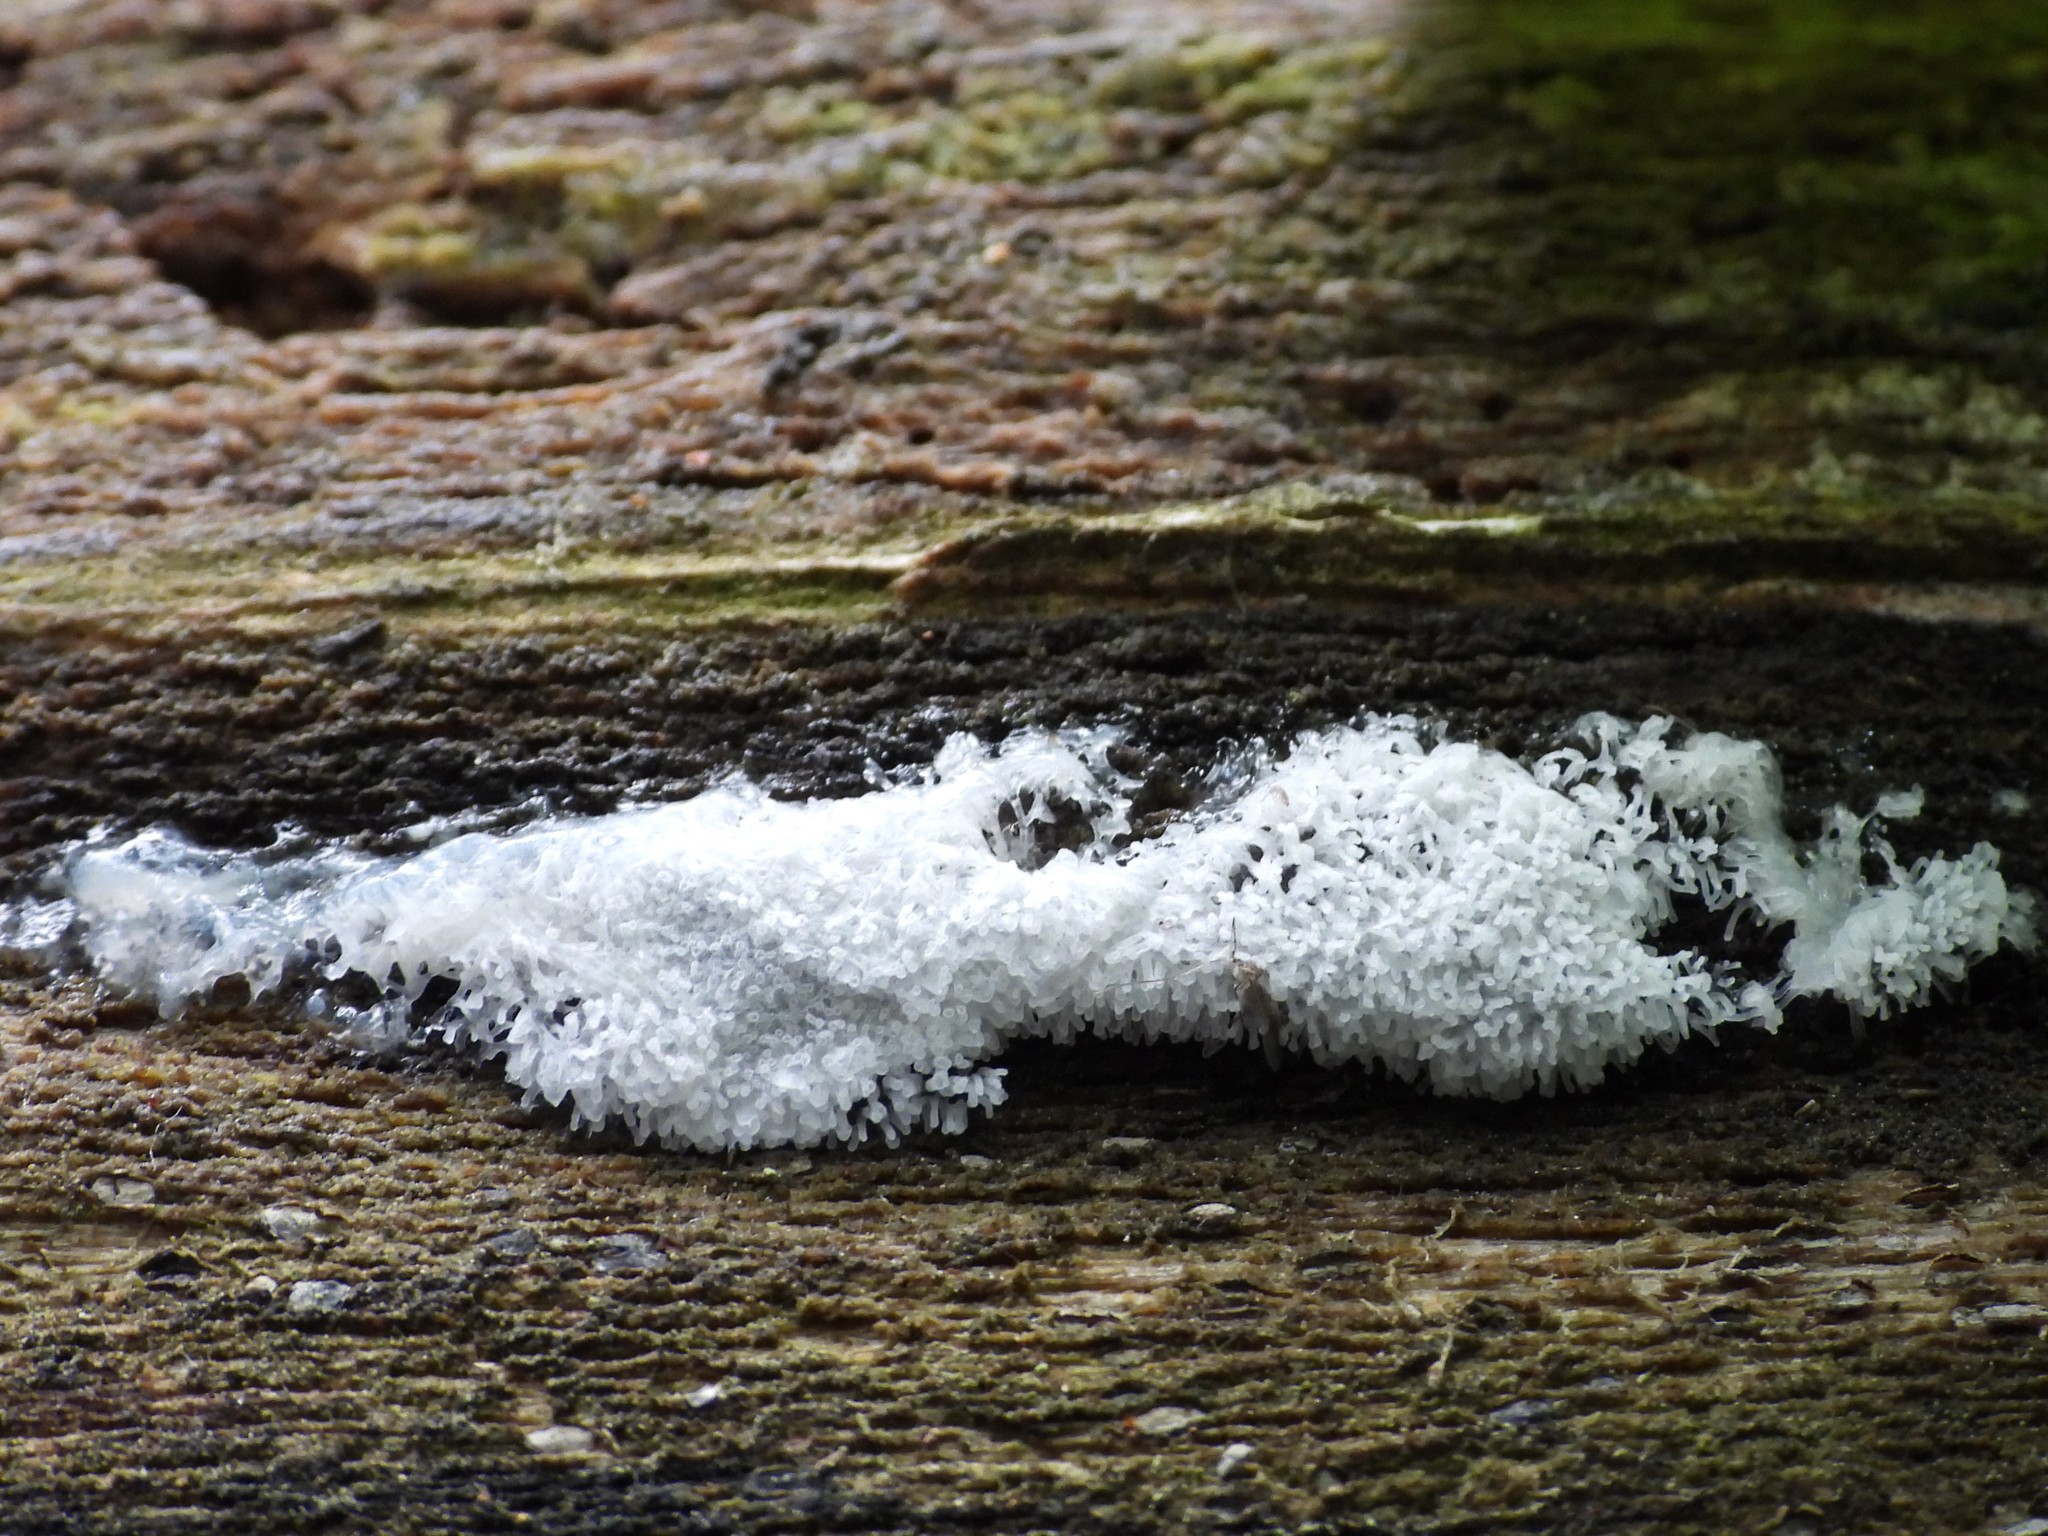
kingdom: Protozoa
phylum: Mycetozoa
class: Protosteliomycetes
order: Ceratiomyxales
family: Ceratiomyxaceae
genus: Ceratiomyxa
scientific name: Ceratiomyxa fruticulosa
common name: Honeycomb coral slime mold
